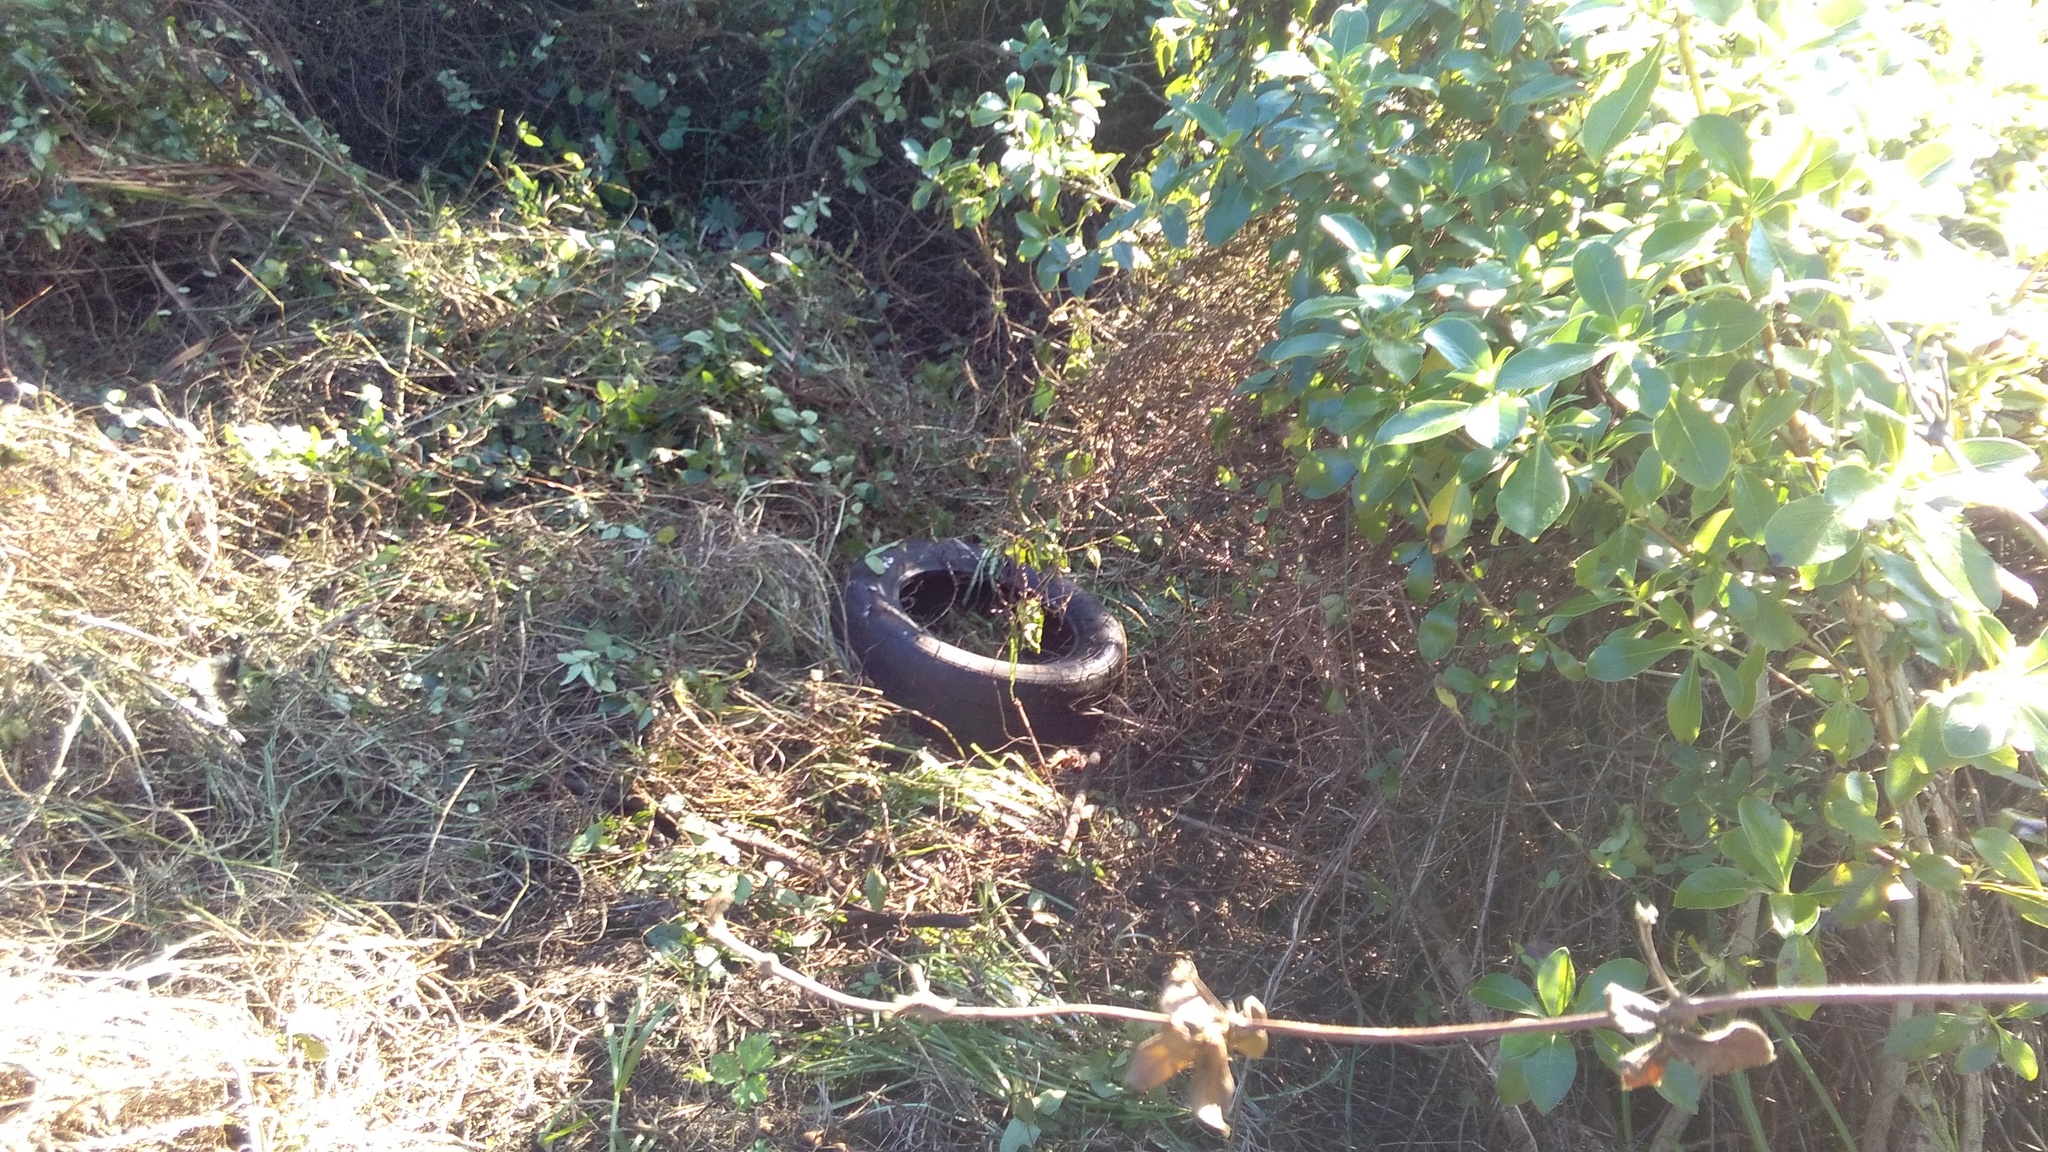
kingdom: Plantae
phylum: Tracheophyta
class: Magnoliopsida
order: Gentianales
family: Rubiaceae
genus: Coprosma
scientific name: Coprosma robusta
